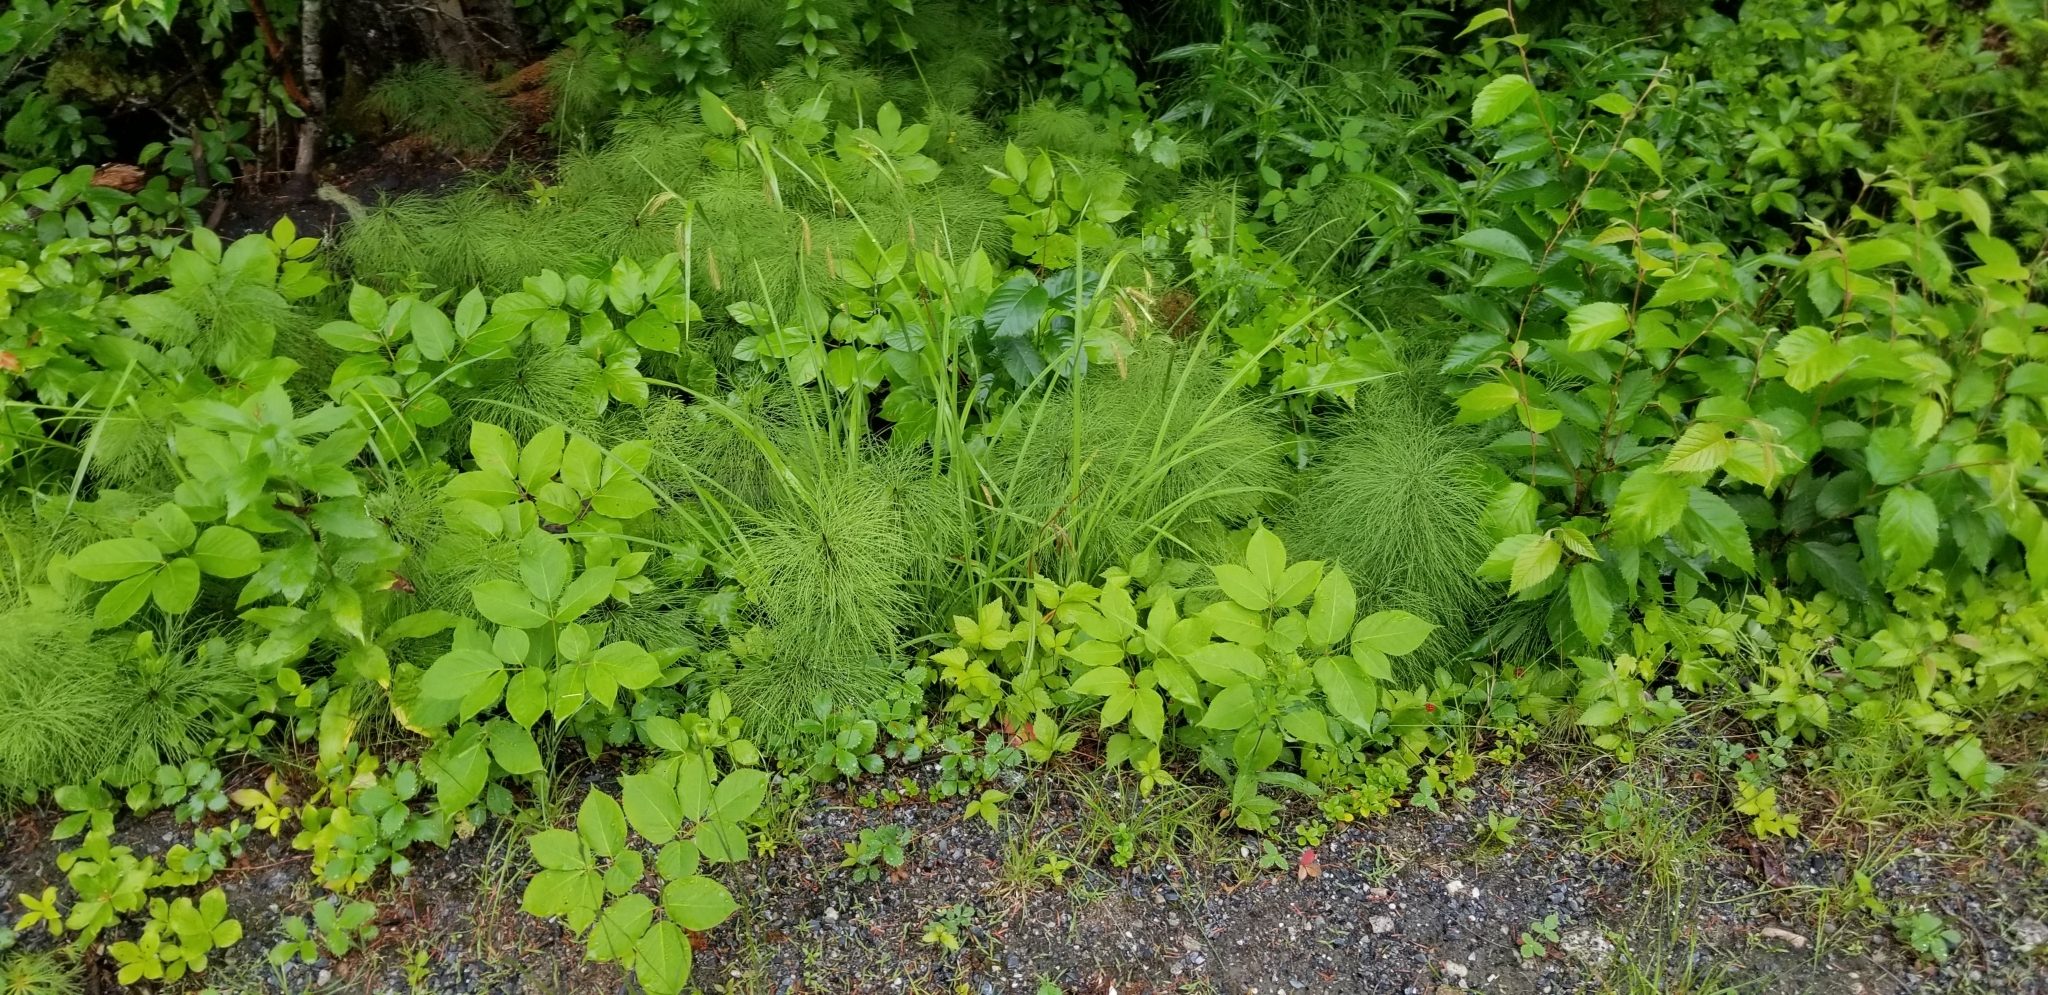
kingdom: Plantae
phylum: Tracheophyta
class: Polypodiopsida
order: Equisetales
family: Equisetaceae
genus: Equisetum
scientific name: Equisetum sylvaticum
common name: Wood horsetail
